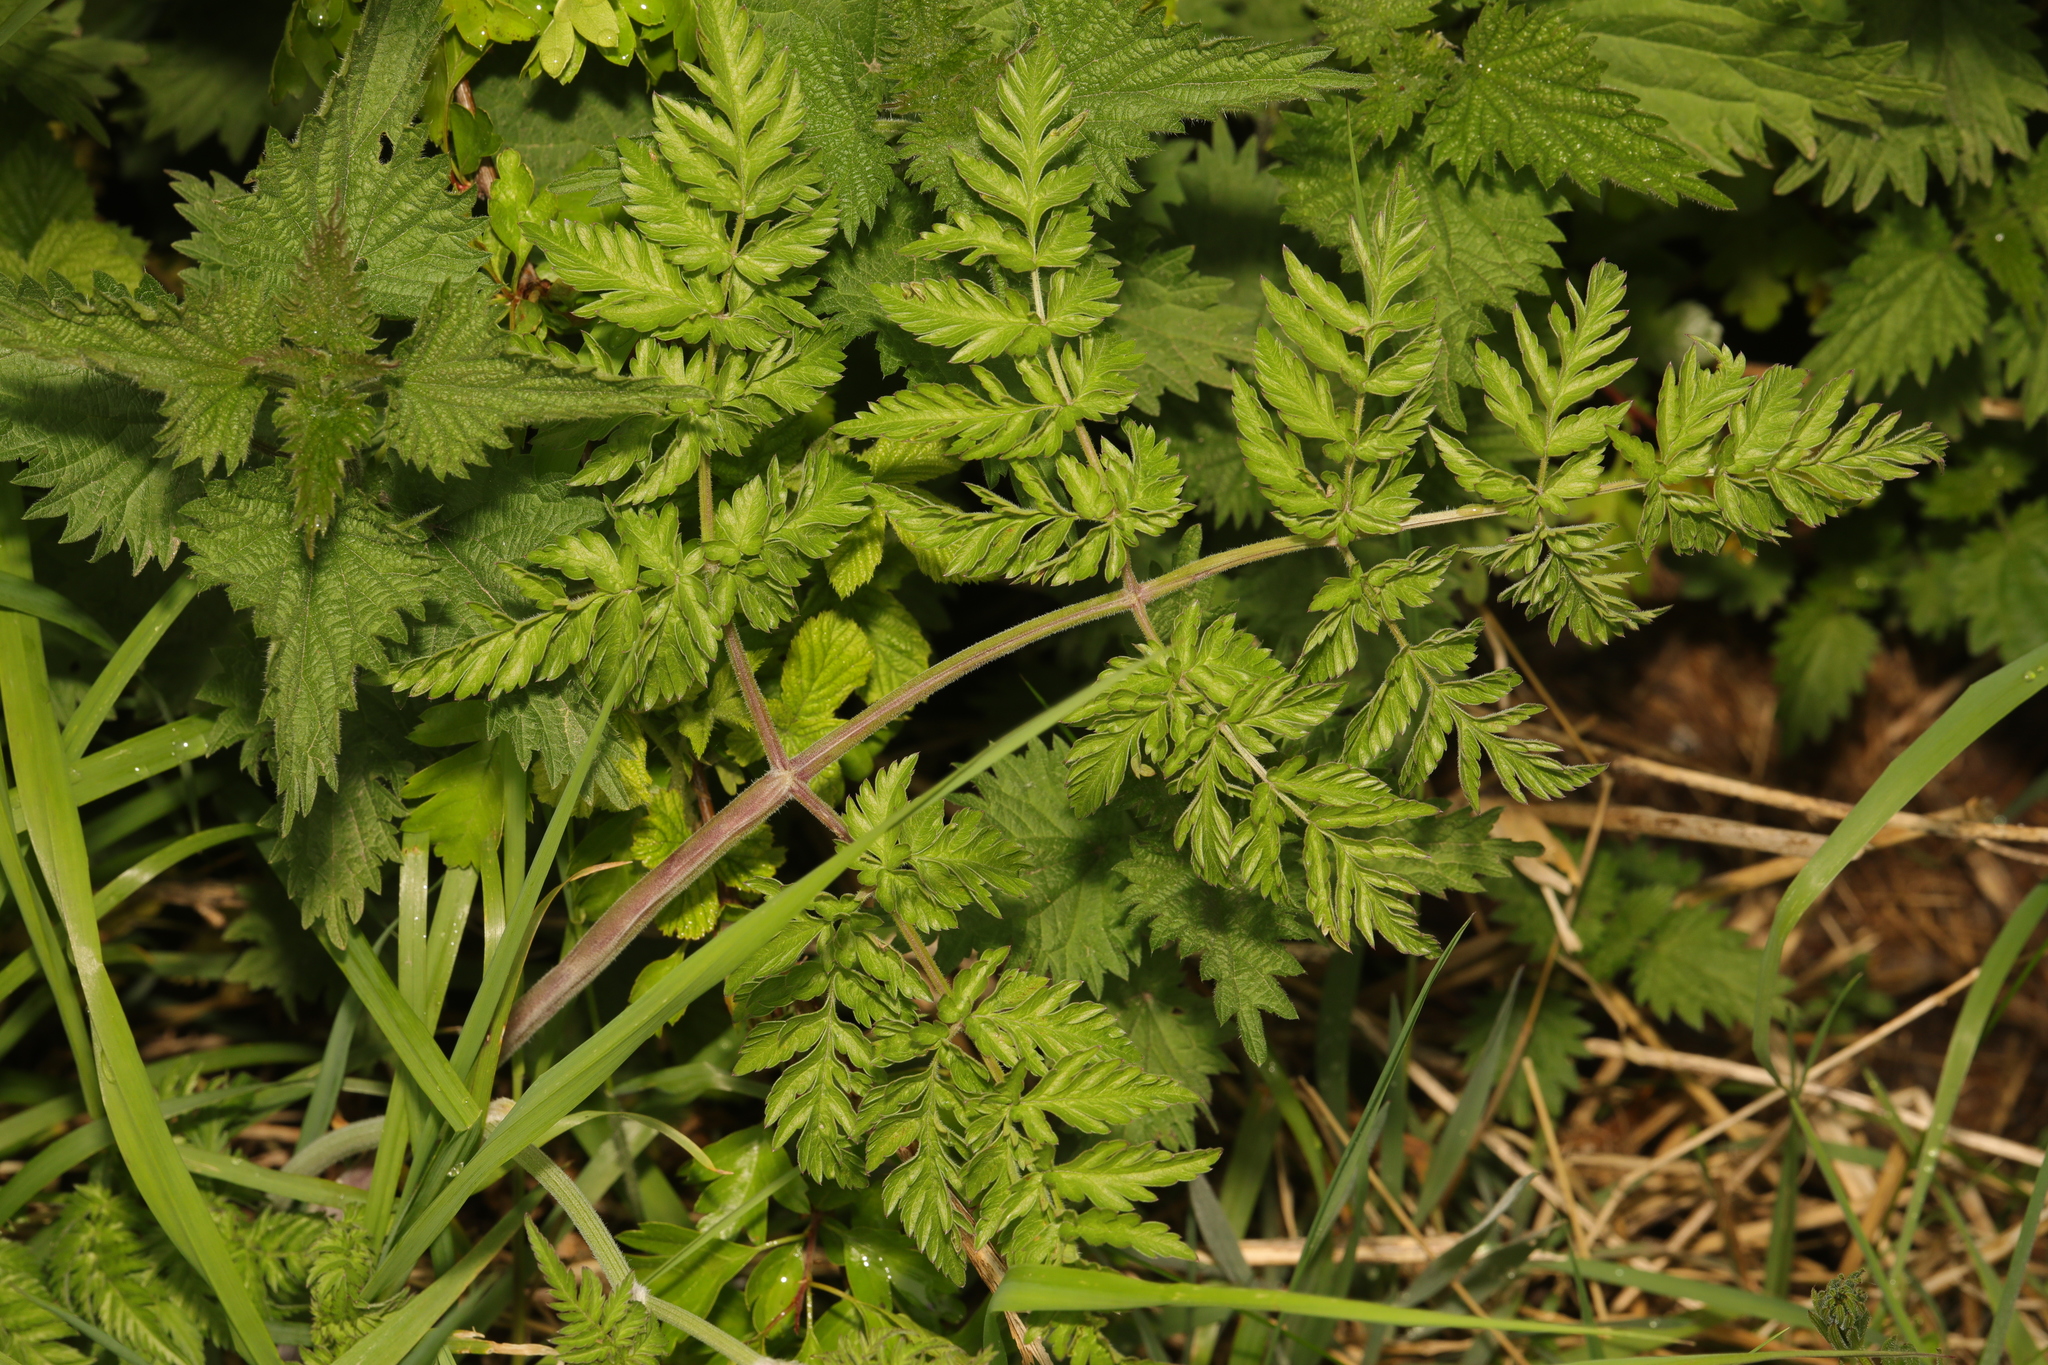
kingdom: Plantae
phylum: Tracheophyta
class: Magnoliopsida
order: Apiales
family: Apiaceae
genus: Anthriscus
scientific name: Anthriscus sylvestris
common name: Cow parsley
